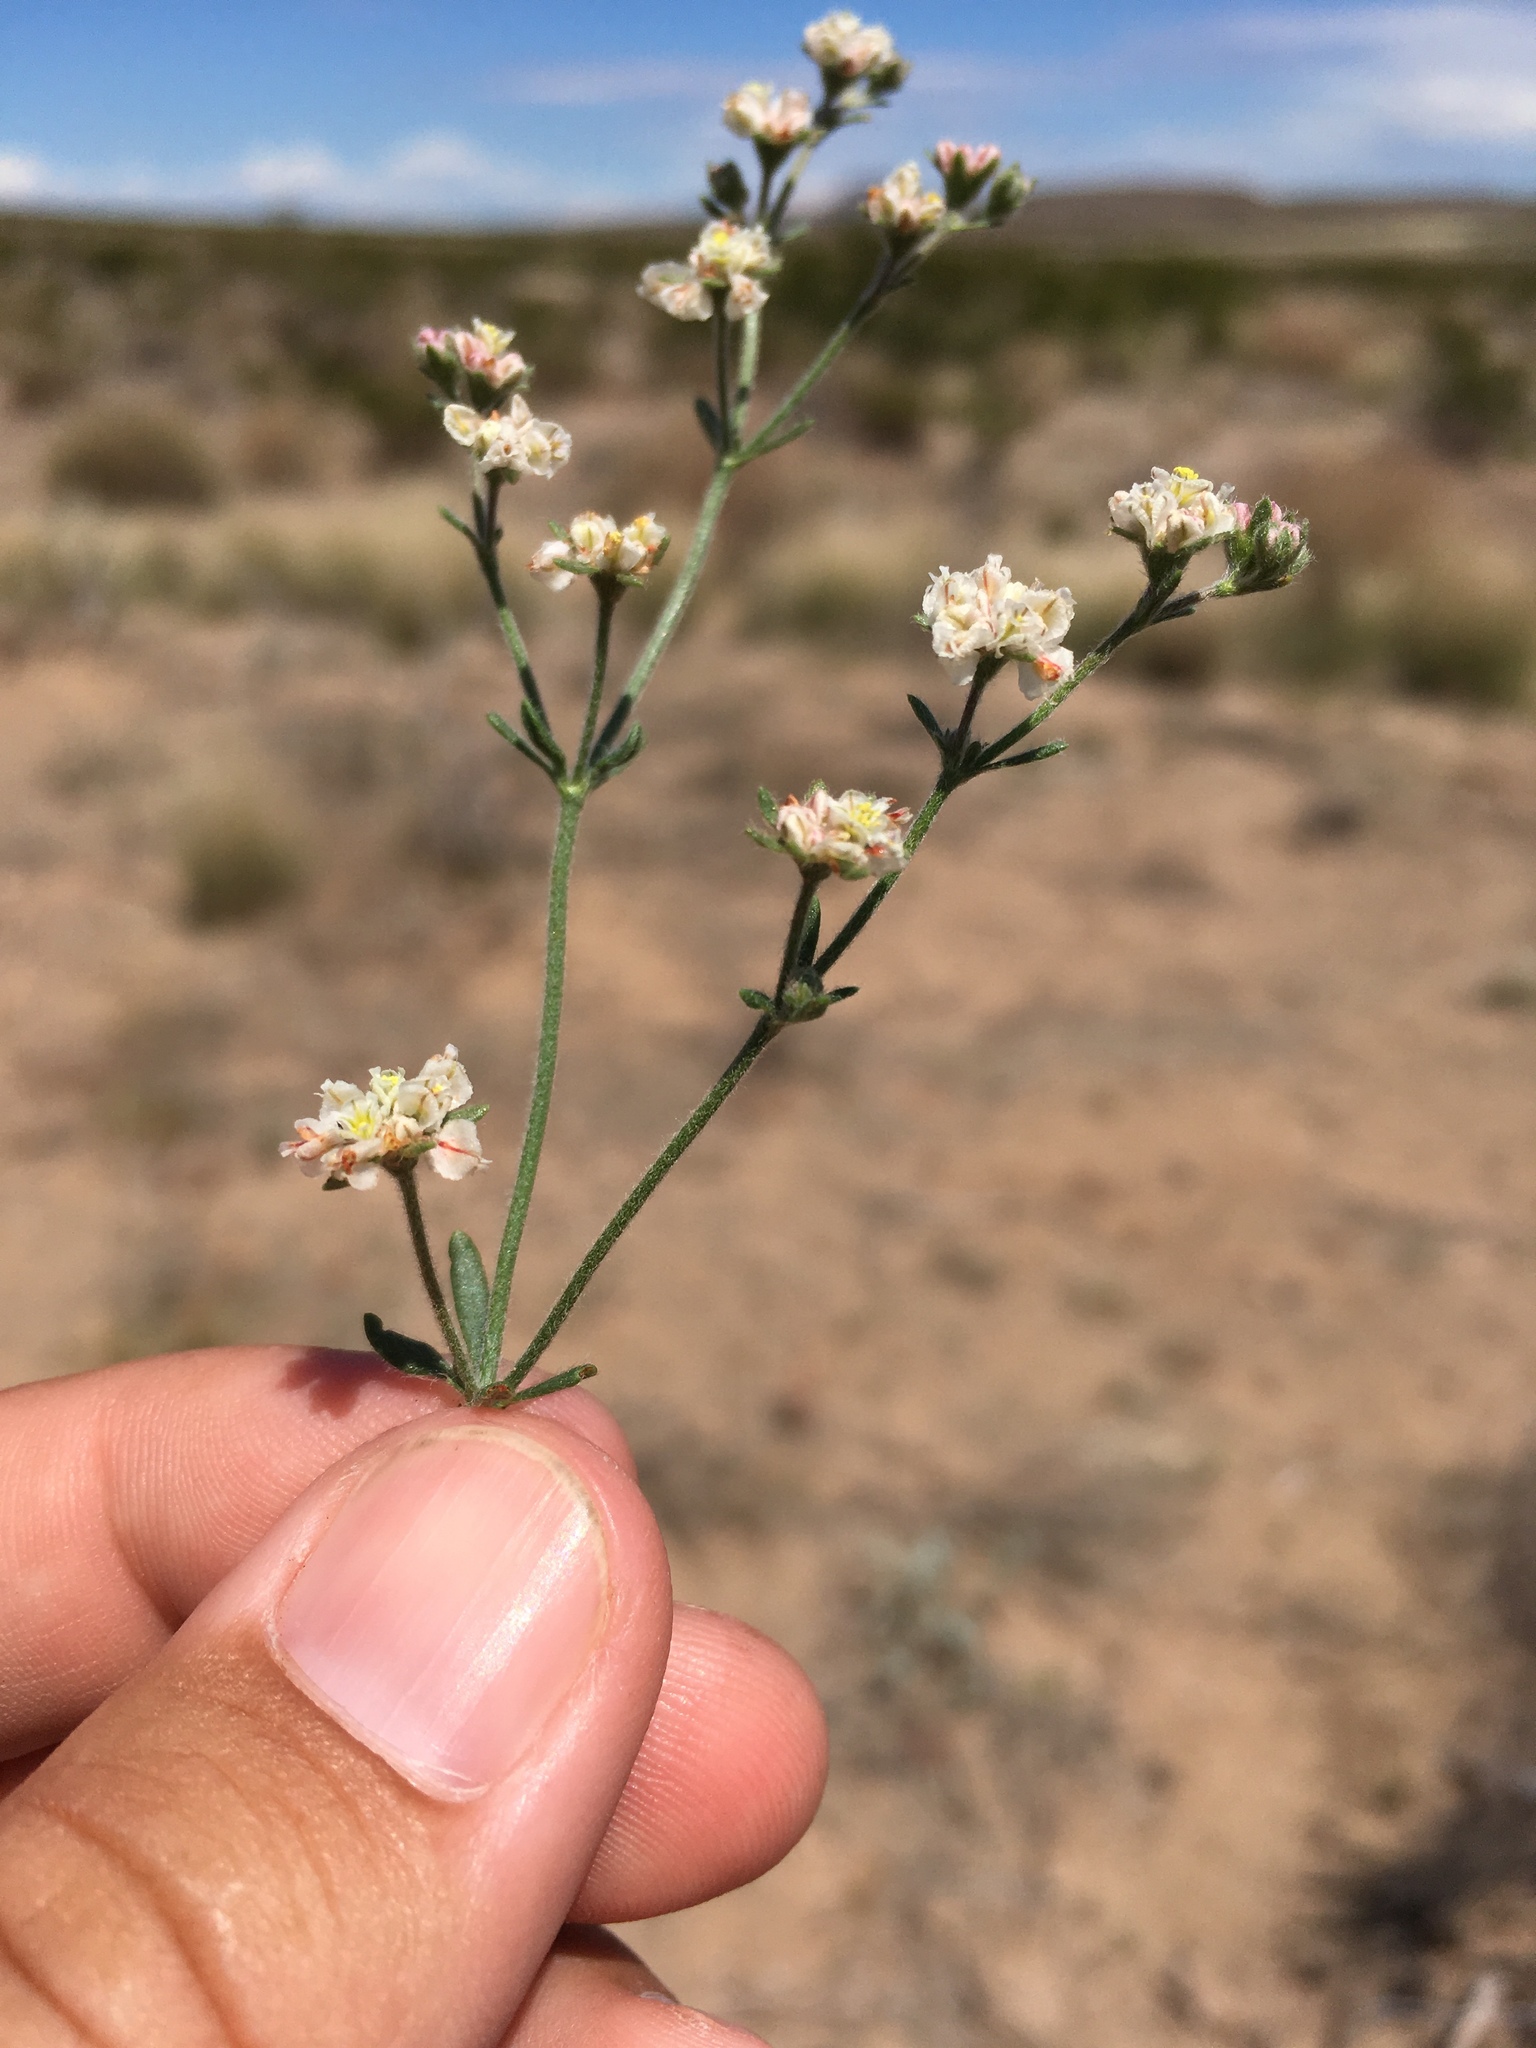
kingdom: Plantae
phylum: Tracheophyta
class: Magnoliopsida
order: Caryophyllales
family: Polygonaceae
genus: Eriogonum
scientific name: Eriogonum abertianum
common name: Abert's wild buckwheat
